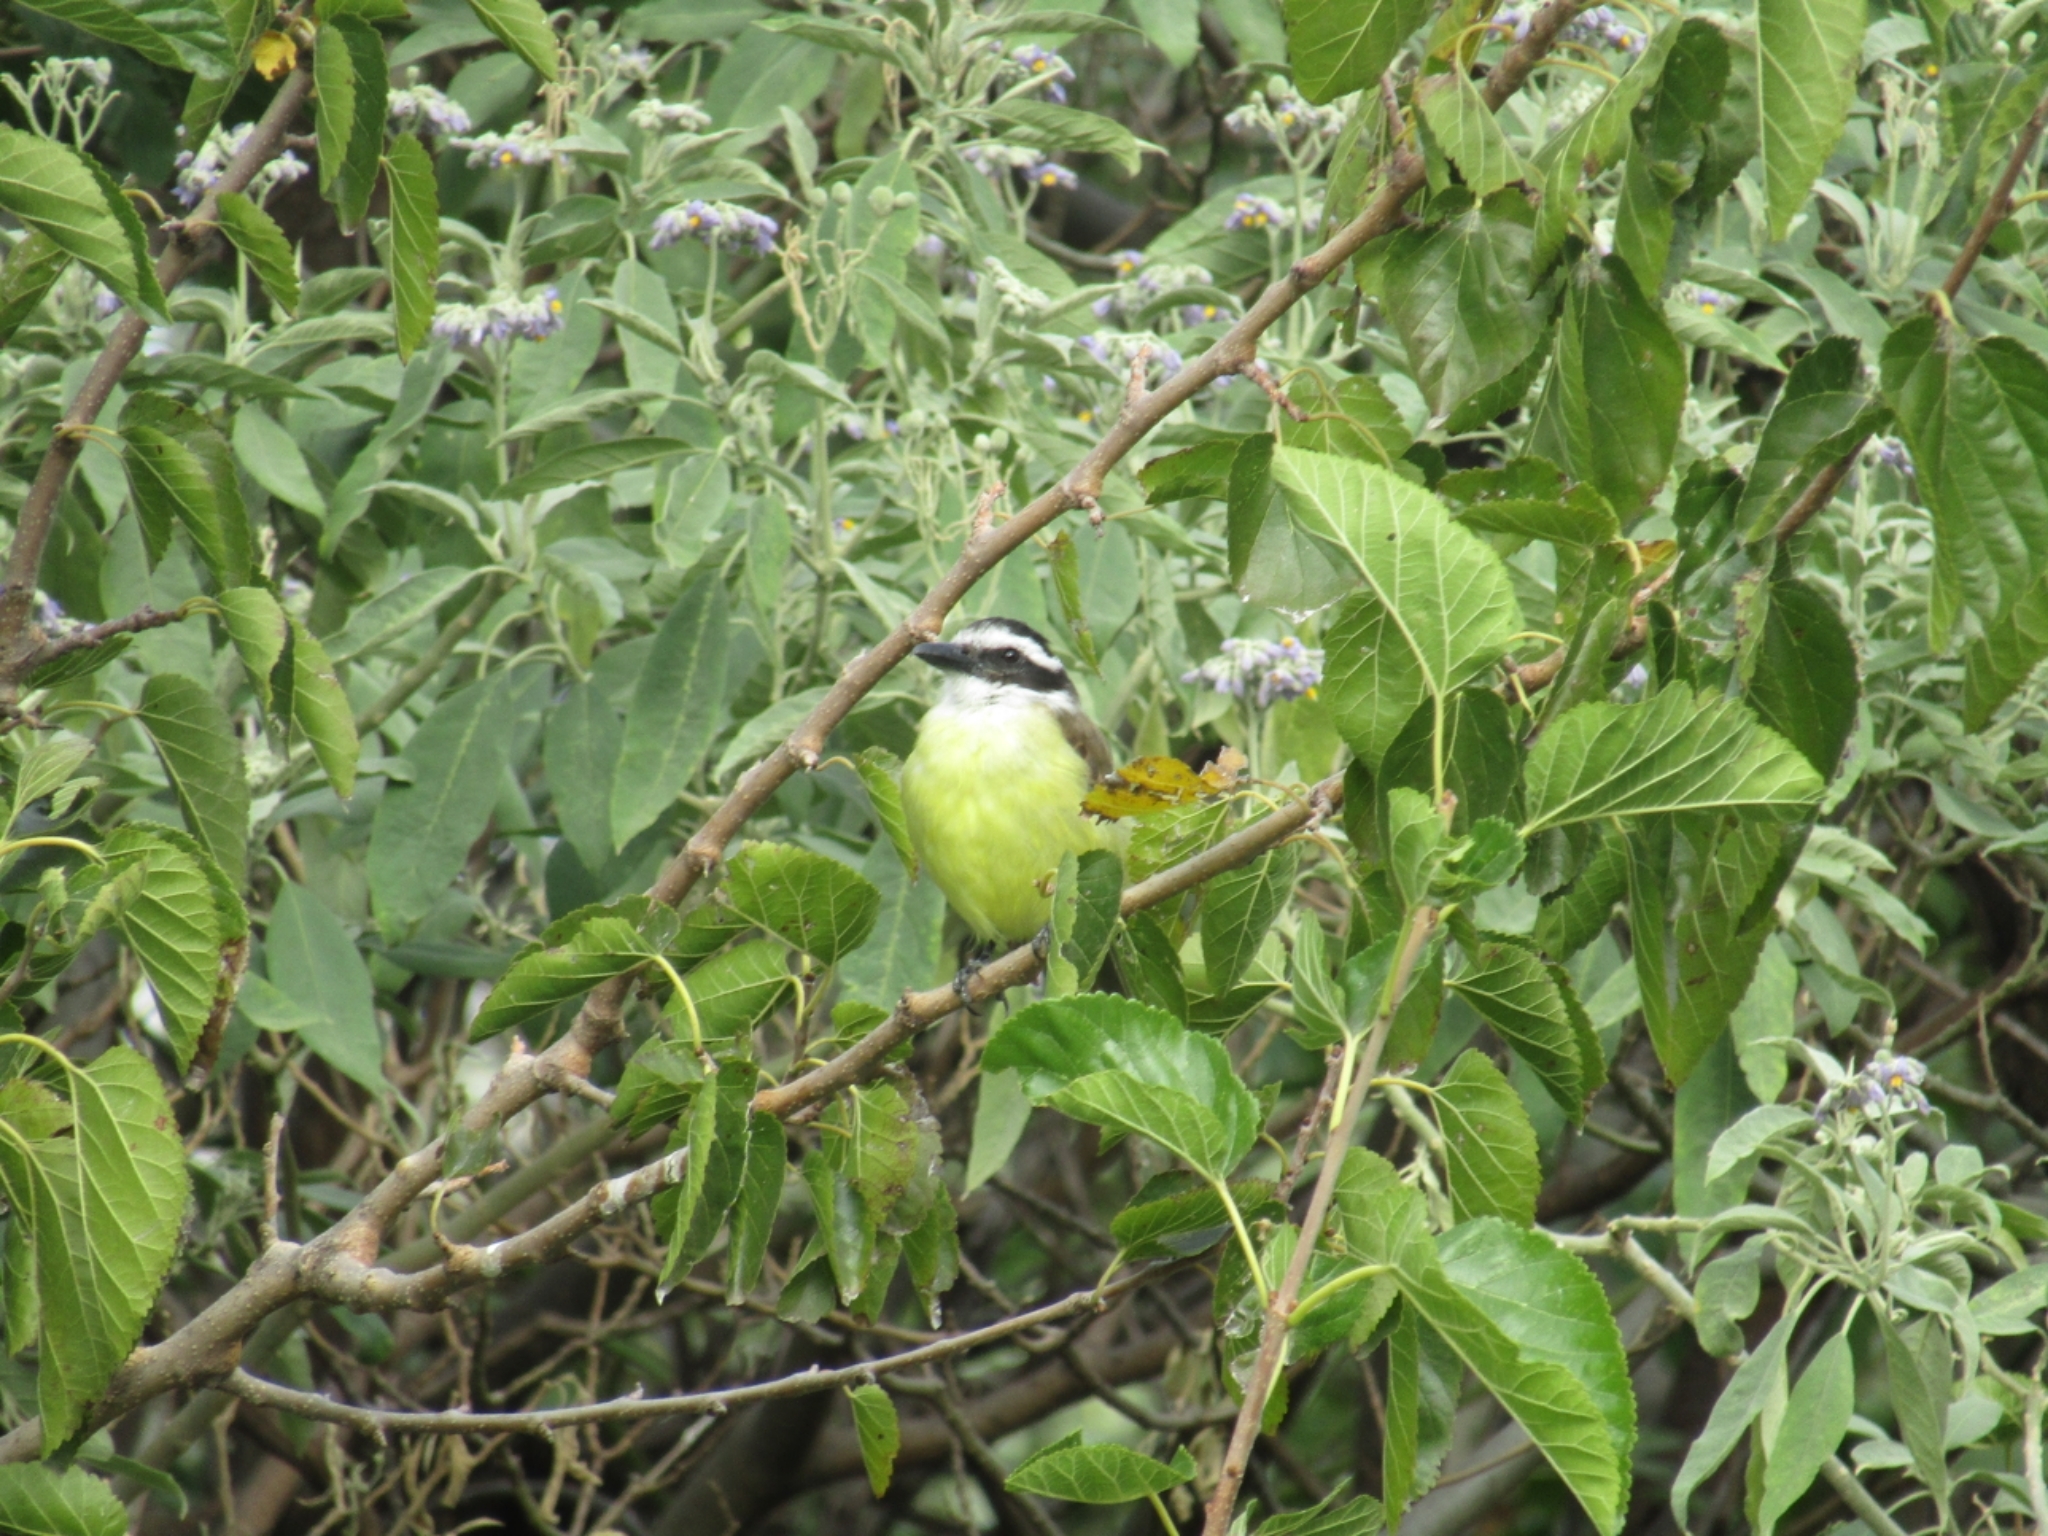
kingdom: Animalia
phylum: Chordata
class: Aves
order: Passeriformes
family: Tyrannidae
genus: Pitangus
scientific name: Pitangus sulphuratus
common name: Great kiskadee
